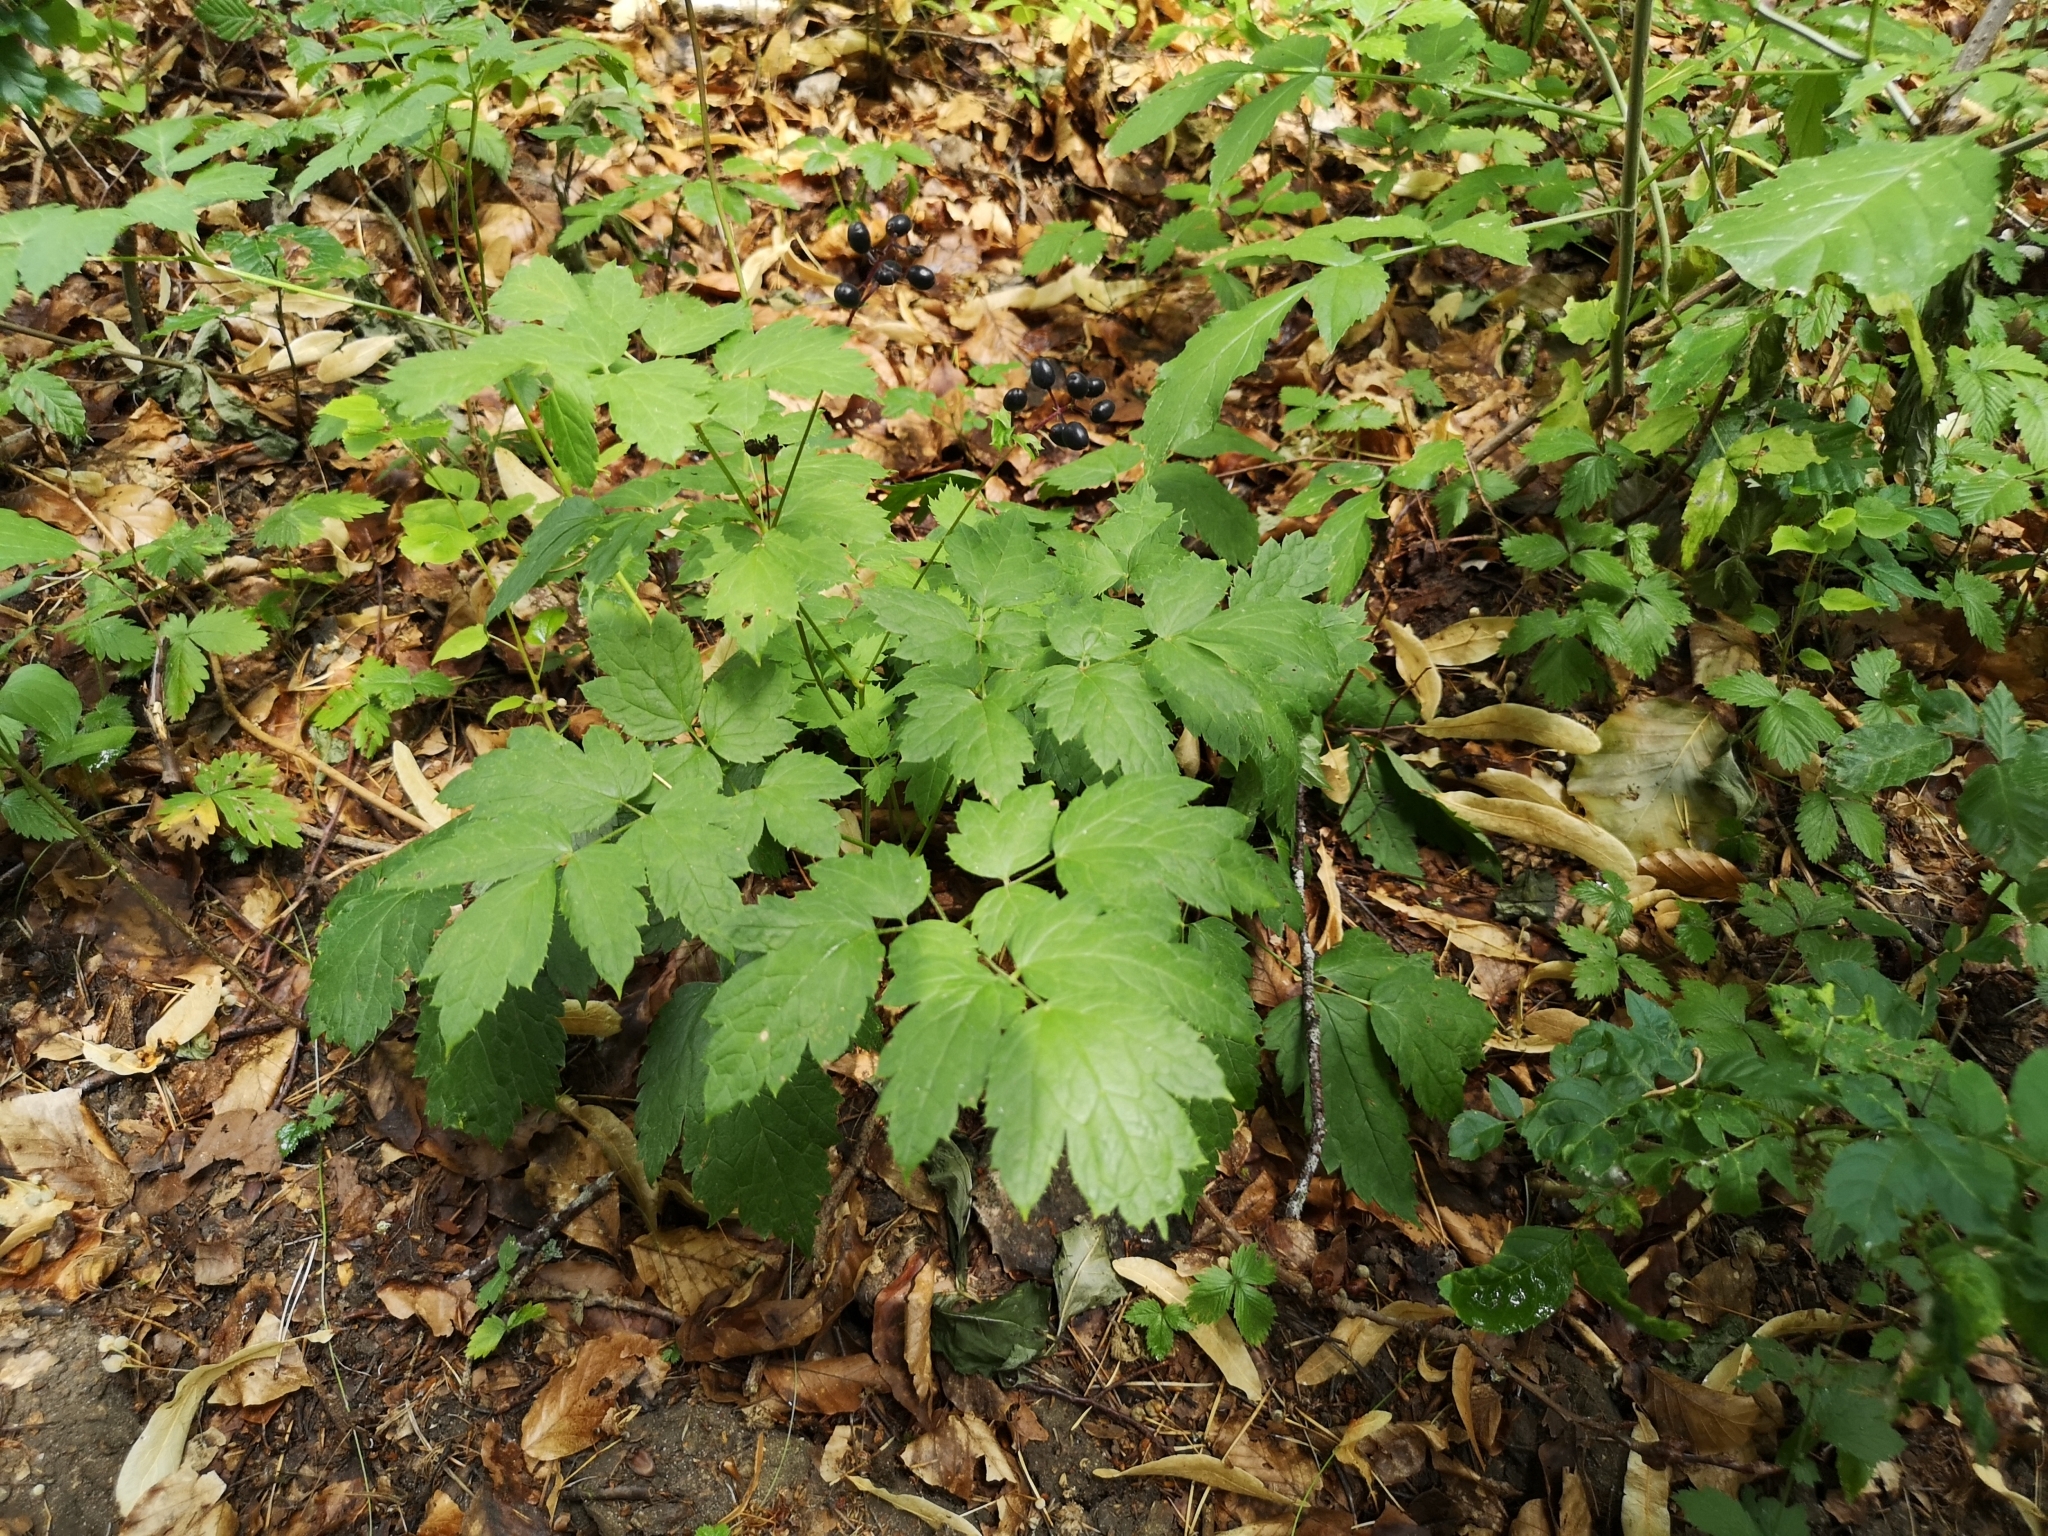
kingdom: Plantae
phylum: Tracheophyta
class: Magnoliopsida
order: Ranunculales
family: Ranunculaceae
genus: Actaea
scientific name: Actaea spicata
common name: Baneberry
